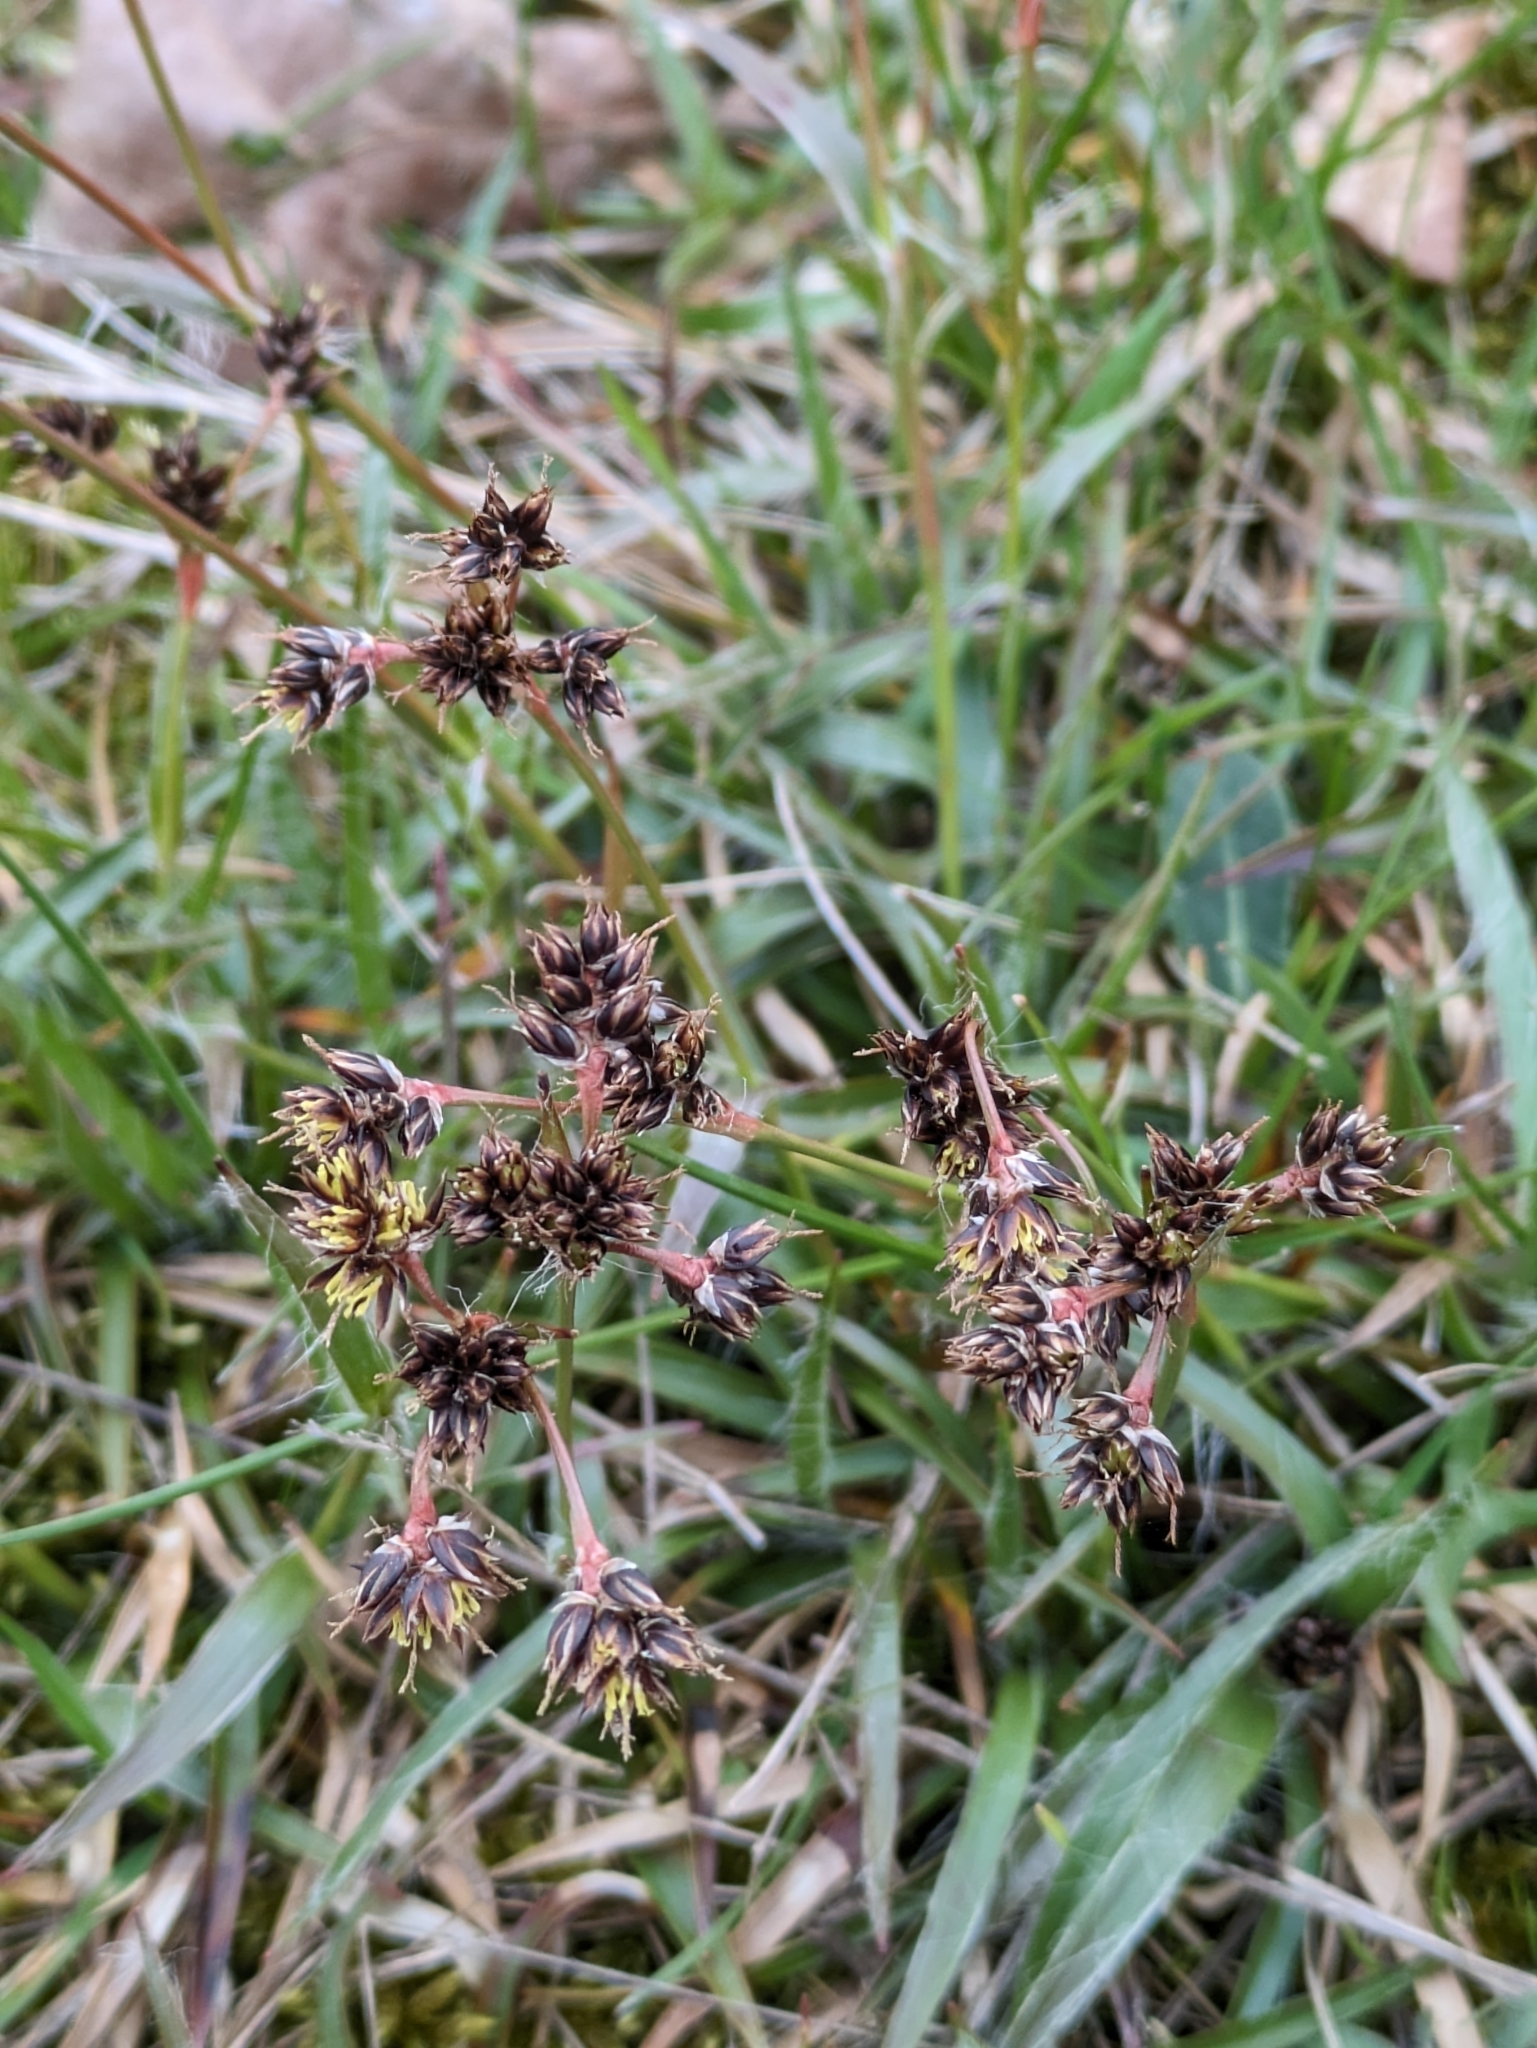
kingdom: Plantae
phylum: Tracheophyta
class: Liliopsida
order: Poales
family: Juncaceae
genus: Luzula
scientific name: Luzula campestris
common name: Field wood-rush
